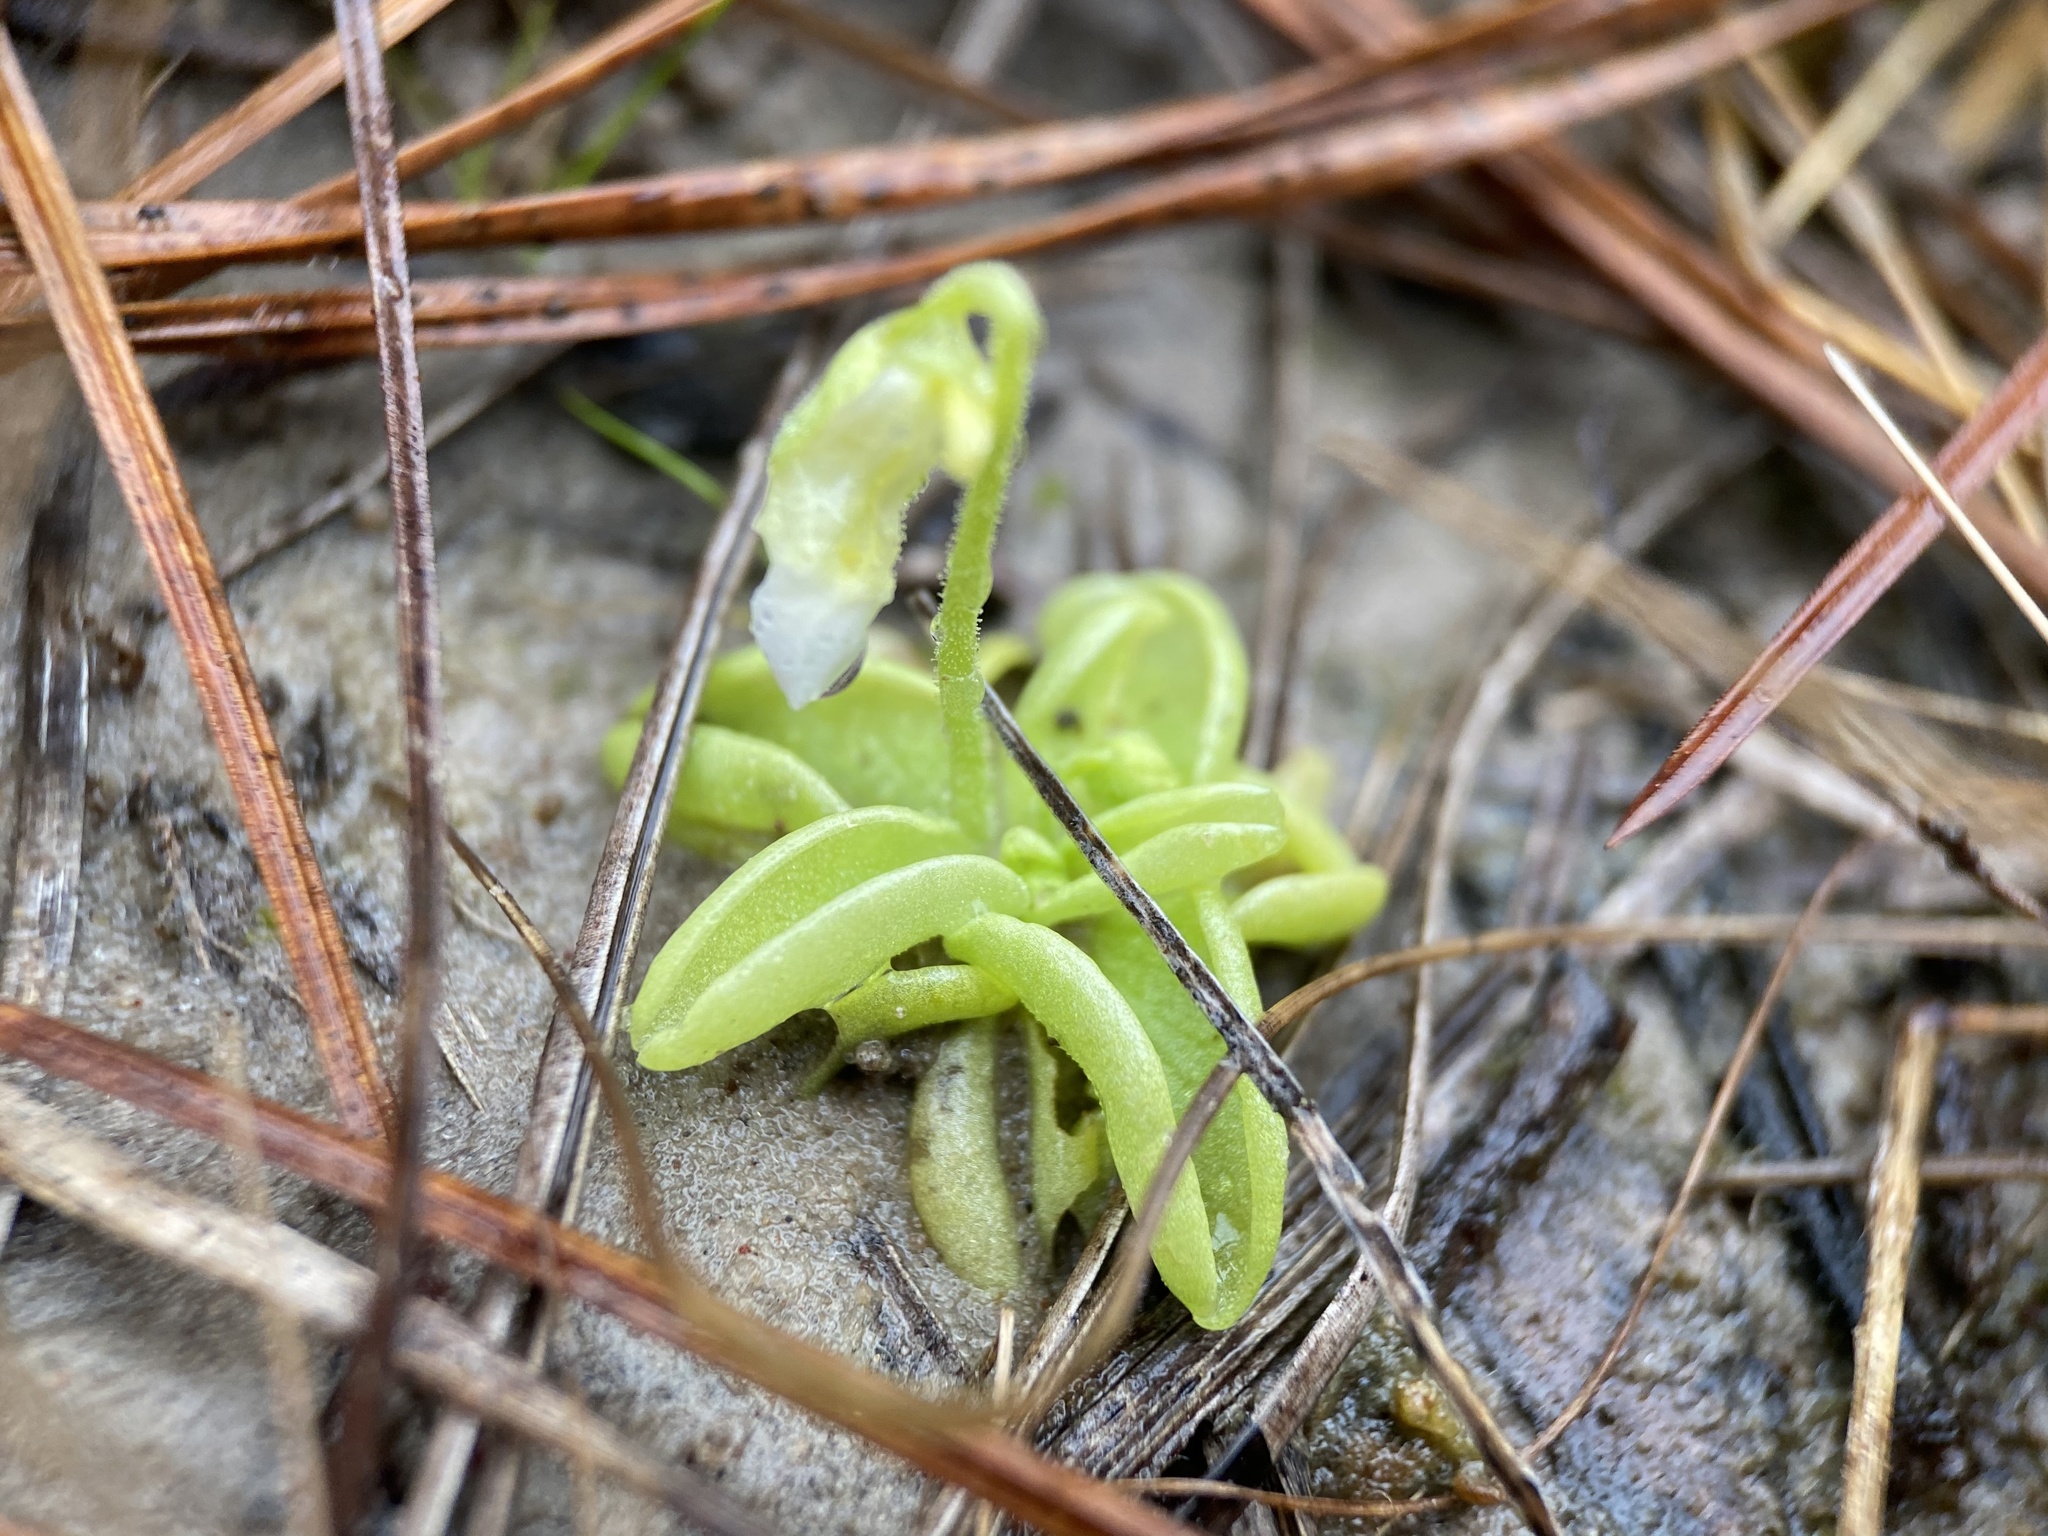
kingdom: Plantae
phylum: Tracheophyta
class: Magnoliopsida
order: Lamiales
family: Lentibulariaceae
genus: Pinguicula
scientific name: Pinguicula pumila
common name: Small butterwort
